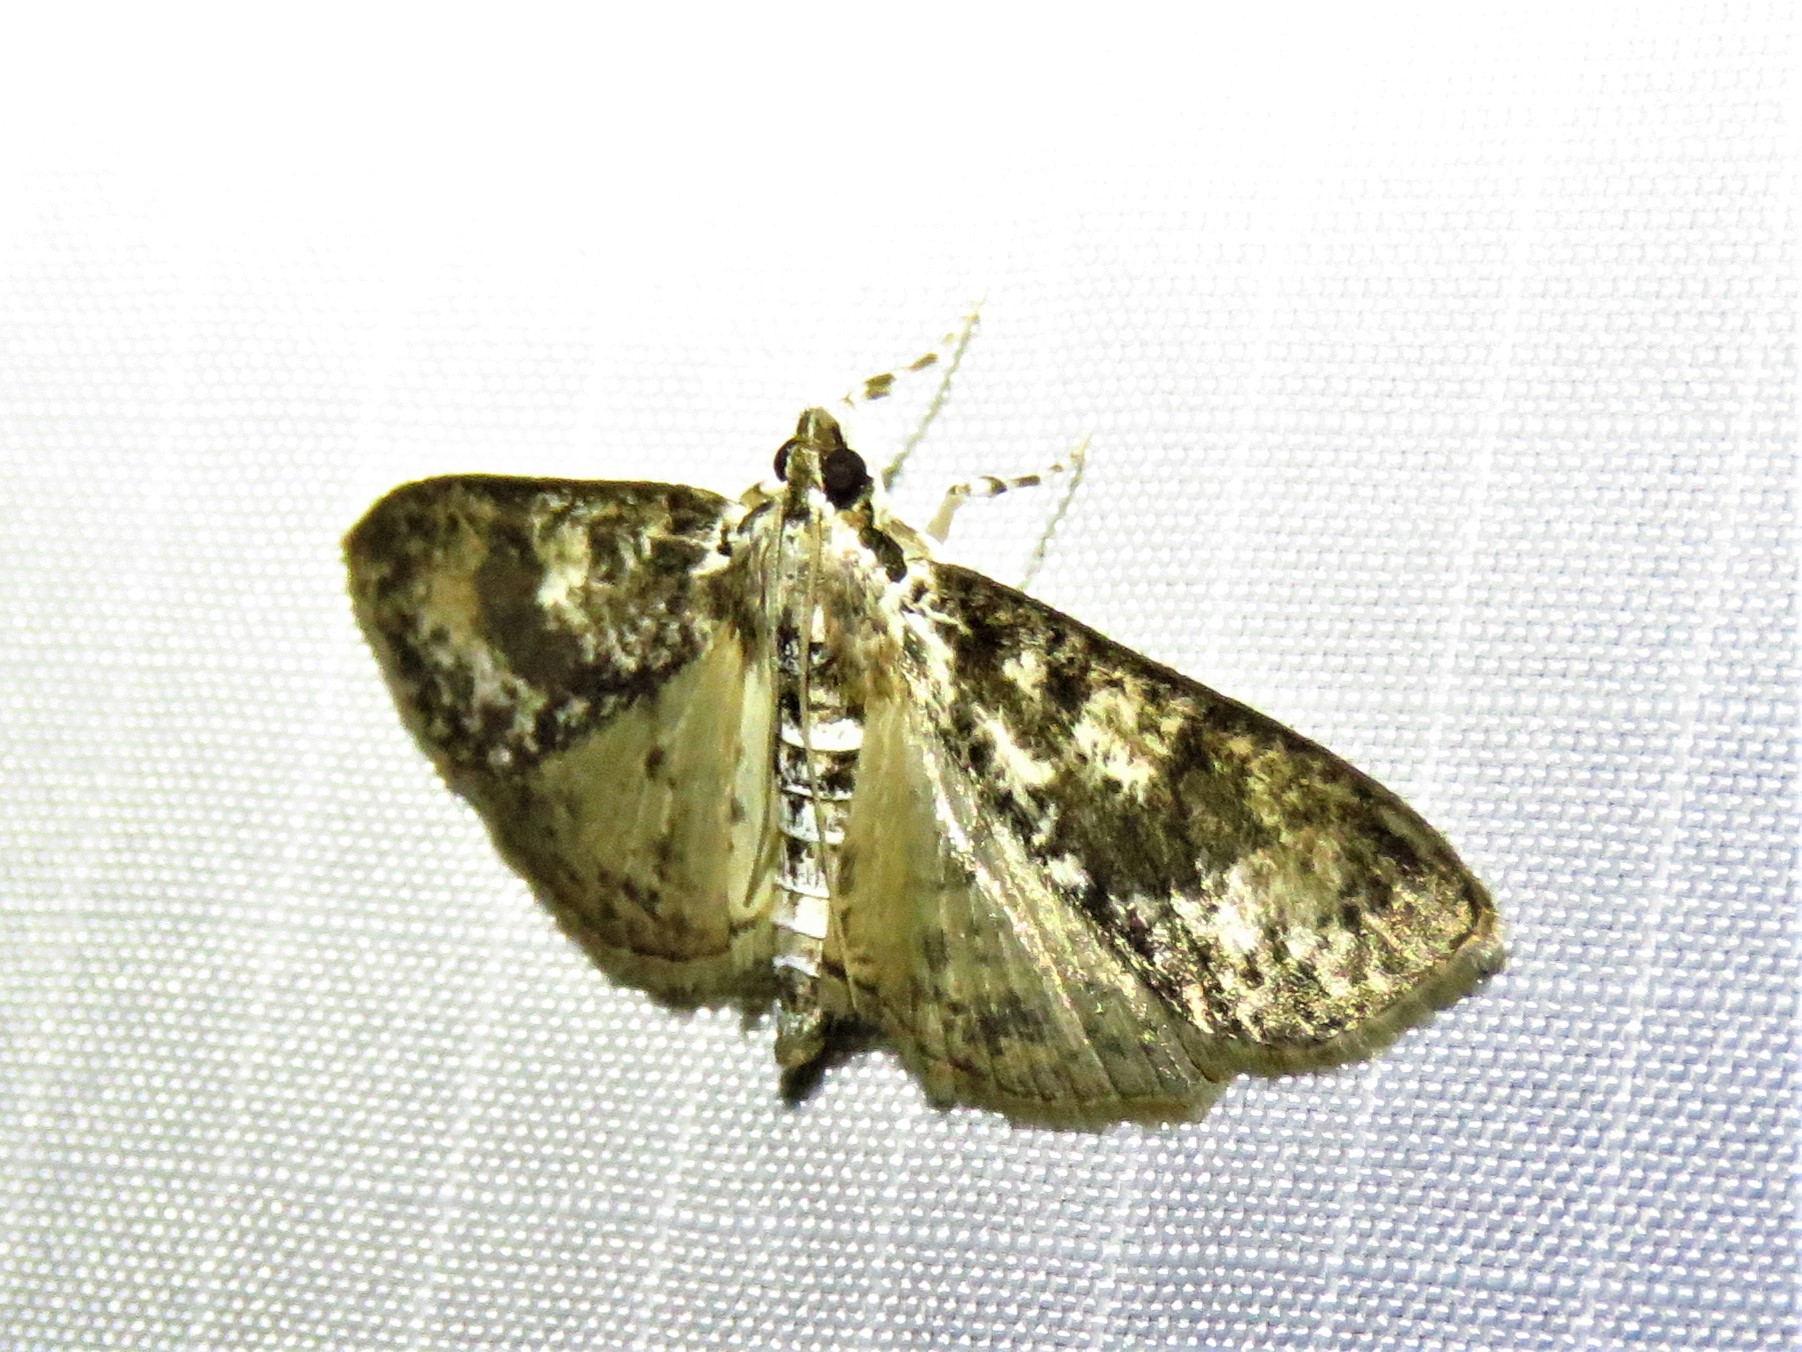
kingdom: Animalia
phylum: Arthropoda
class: Insecta
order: Lepidoptera
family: Crambidae
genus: Palpita
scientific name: Palpita magniferalis
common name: Splendid palpita moth
